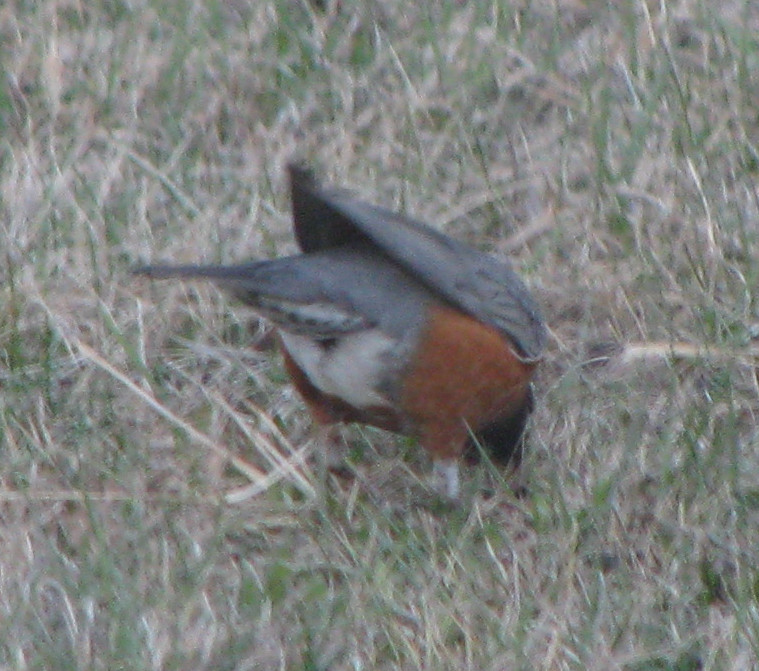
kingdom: Animalia
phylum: Chordata
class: Aves
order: Passeriformes
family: Turdidae
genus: Turdus
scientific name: Turdus migratorius
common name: American robin
